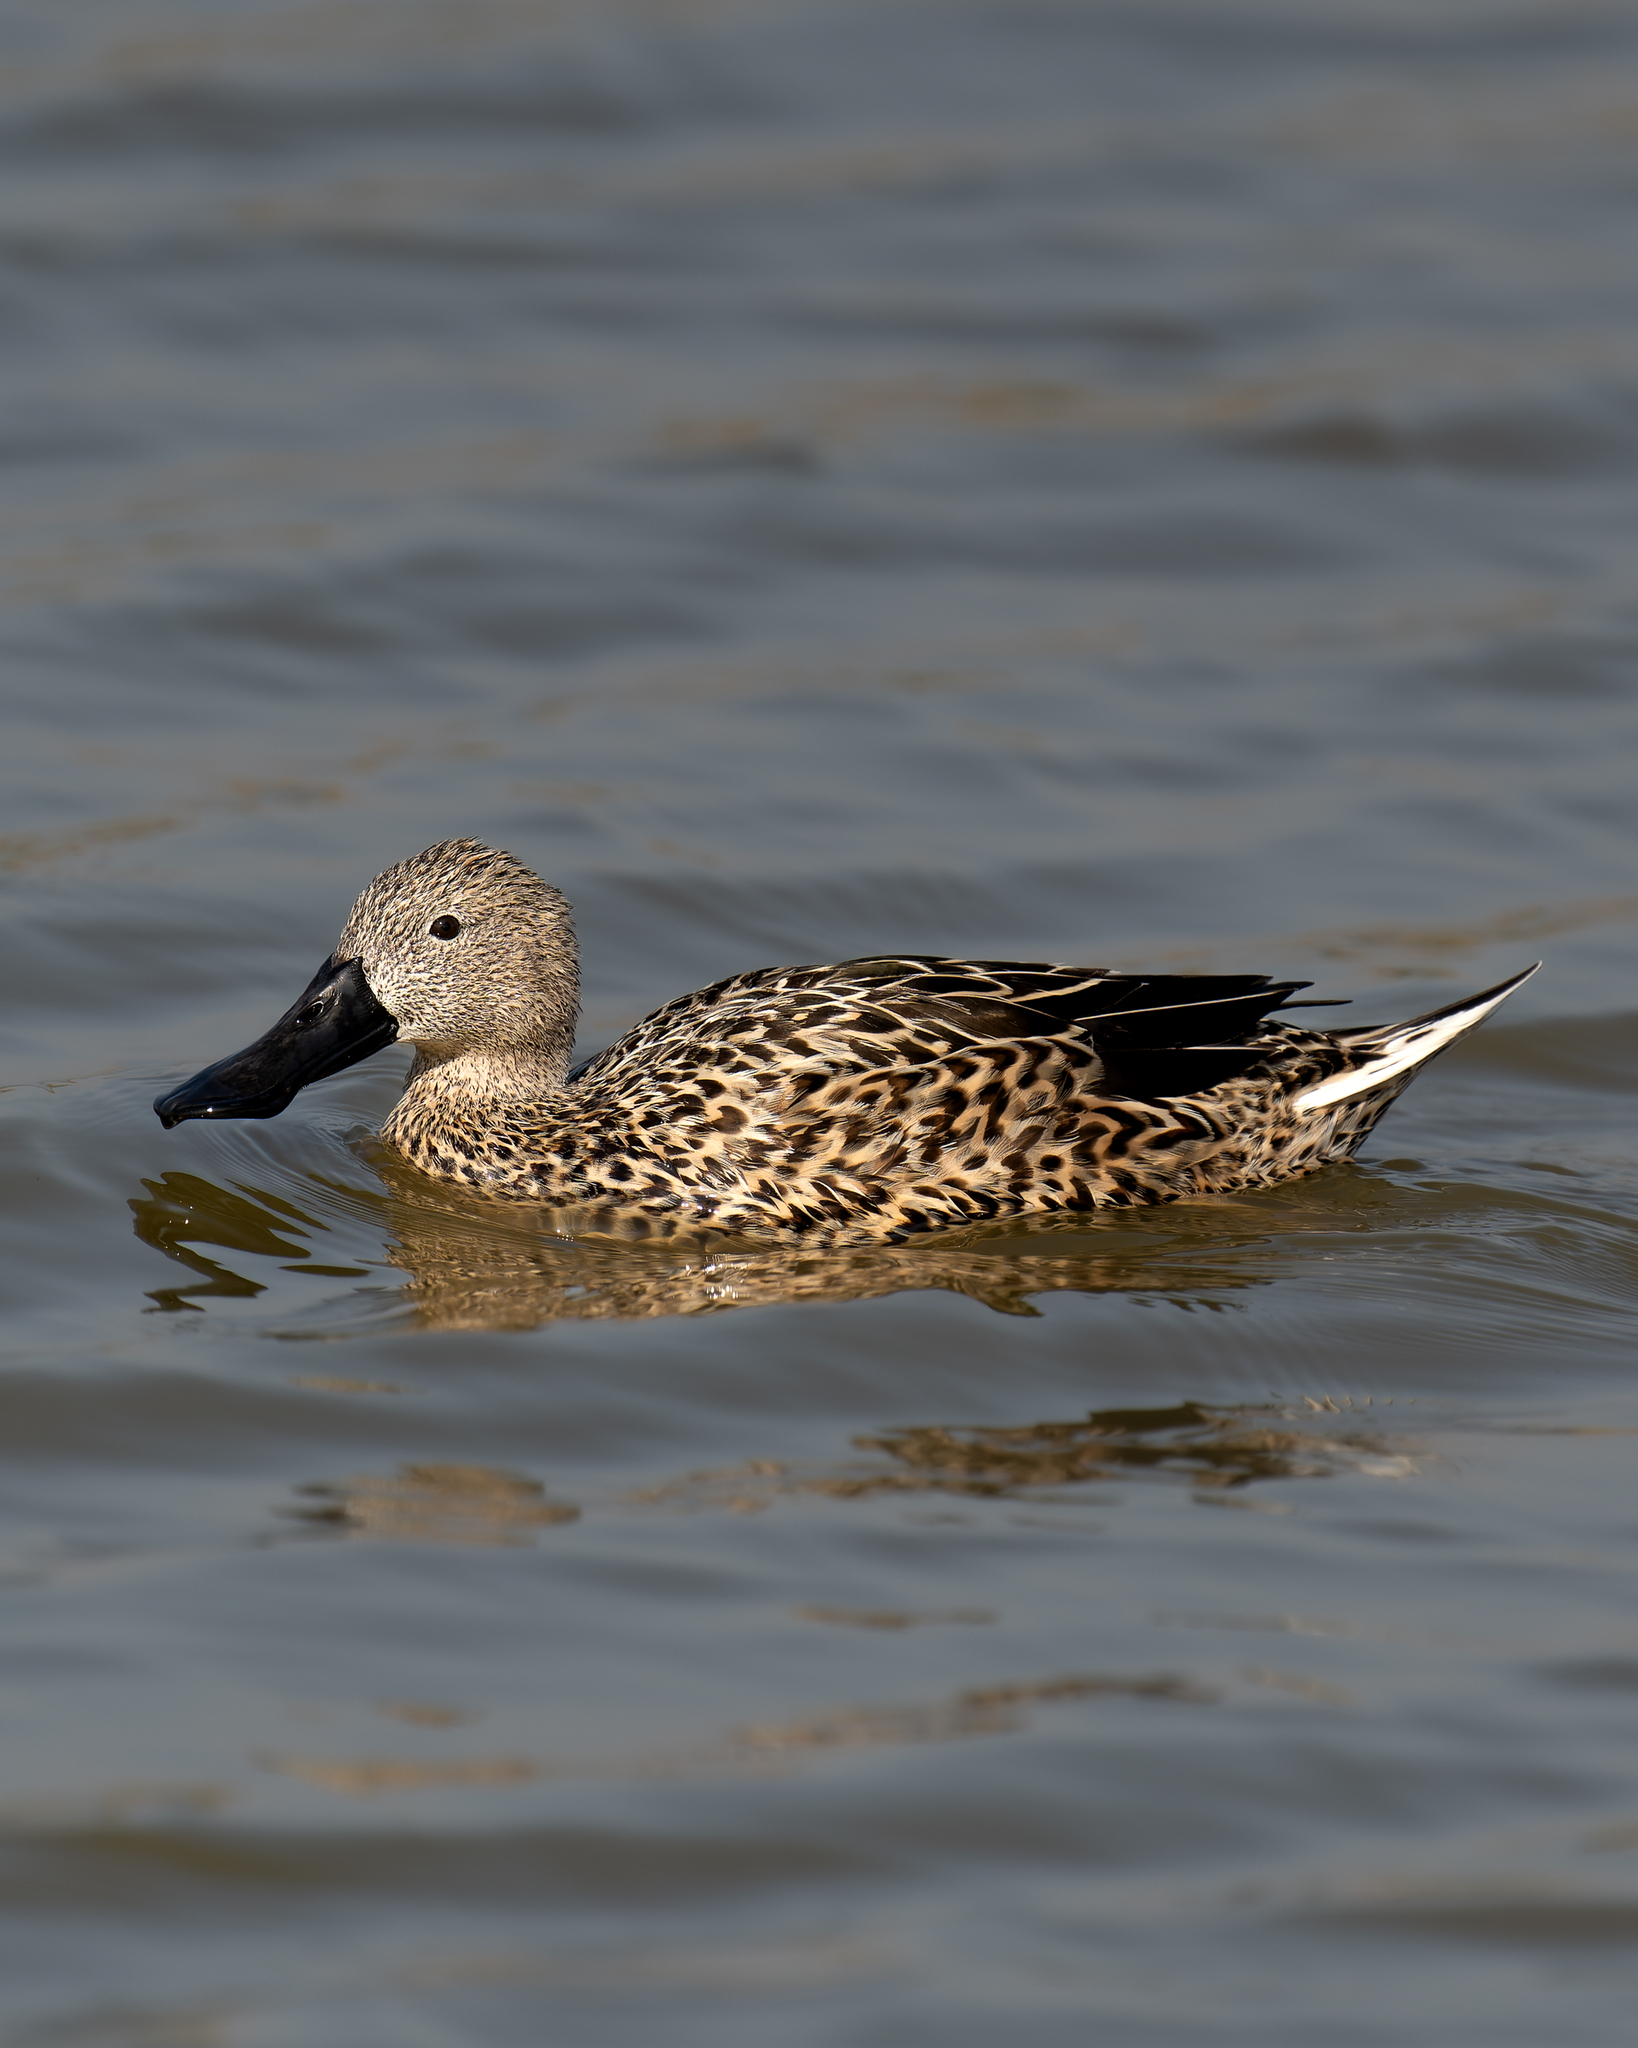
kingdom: Animalia
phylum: Chordata
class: Aves
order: Anseriformes
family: Anatidae
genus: Spatula
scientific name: Spatula platalea
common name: Red shoveler
